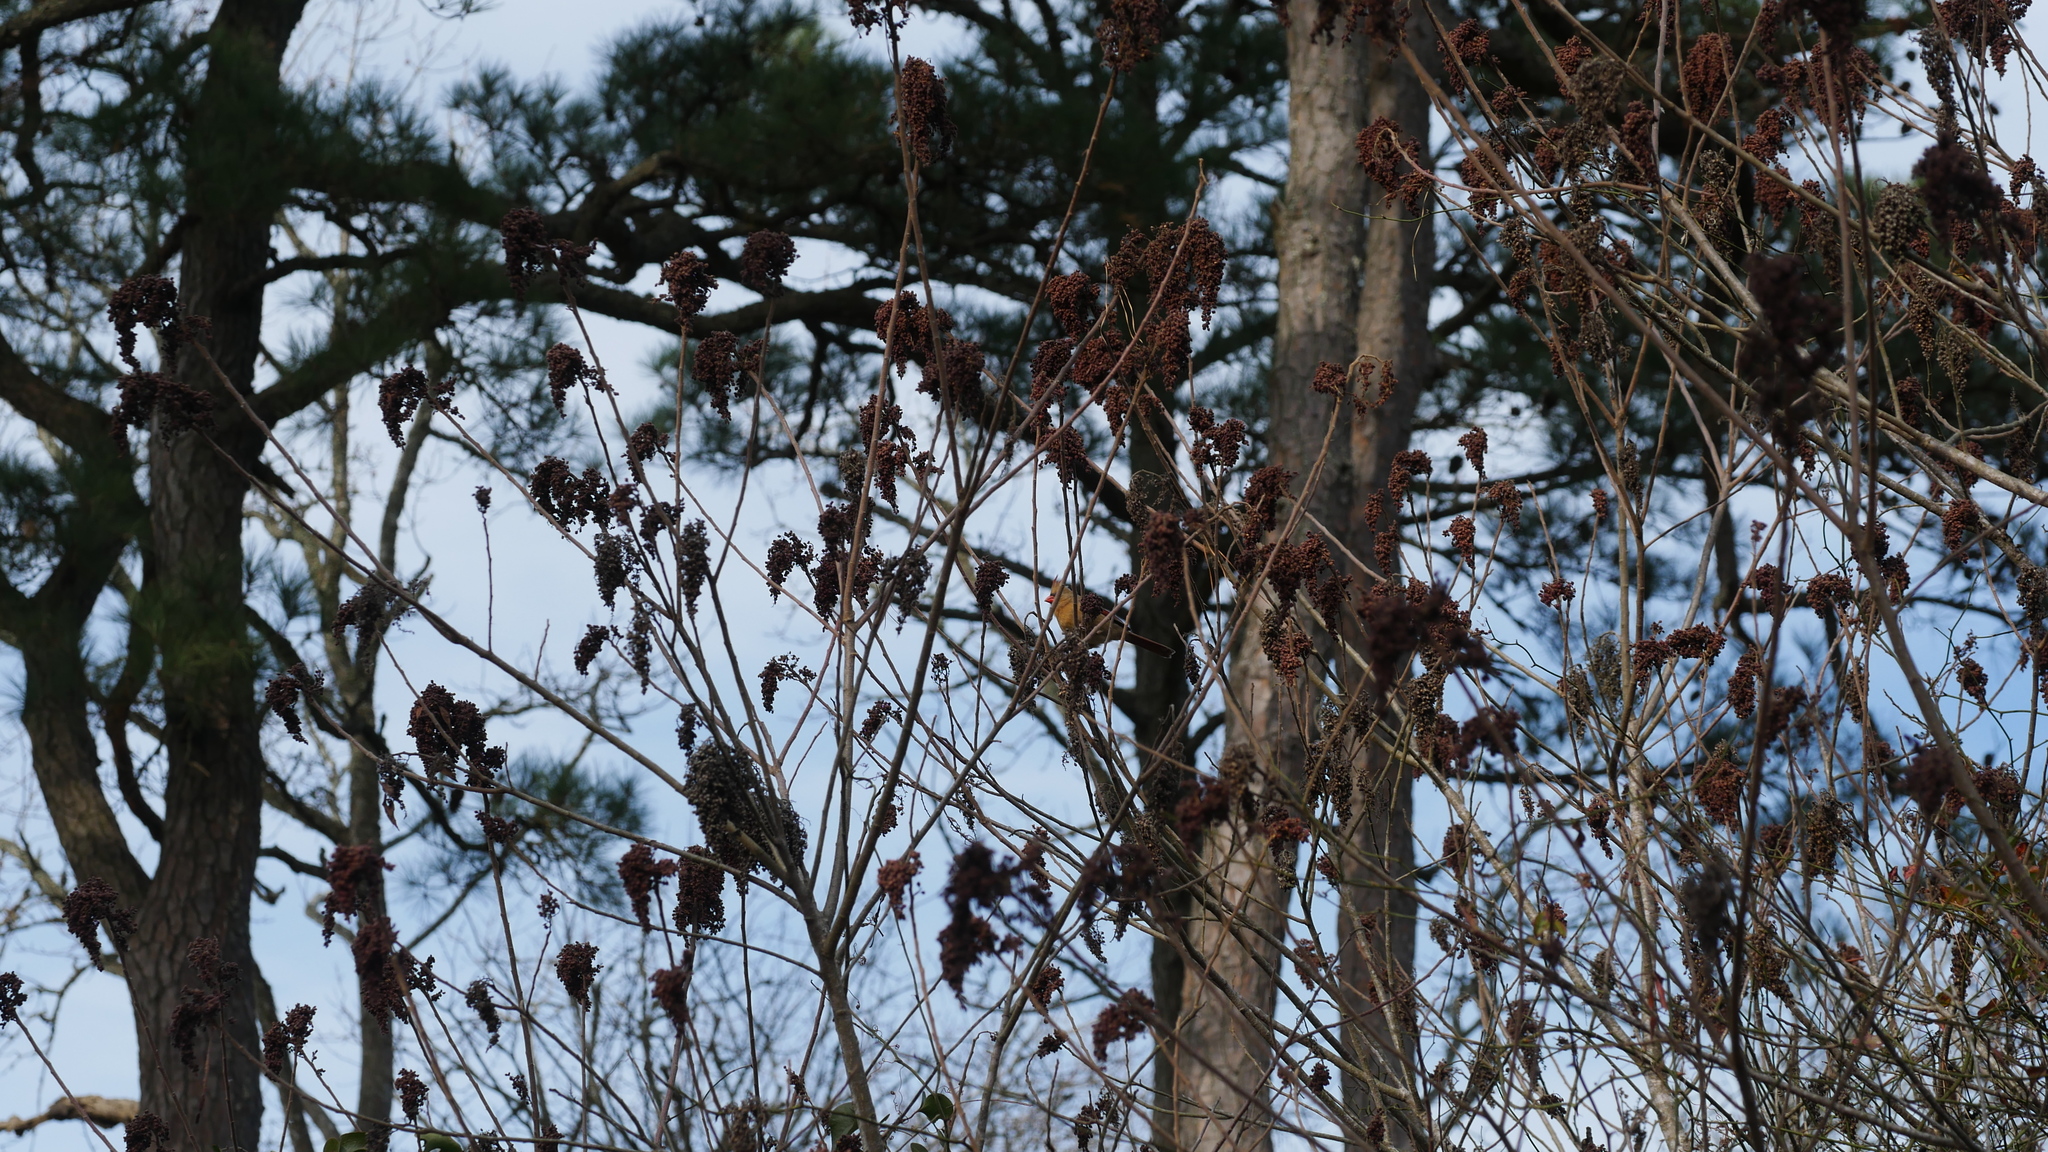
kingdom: Animalia
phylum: Chordata
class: Aves
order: Passeriformes
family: Cardinalidae
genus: Cardinalis
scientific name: Cardinalis cardinalis
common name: Northern cardinal
